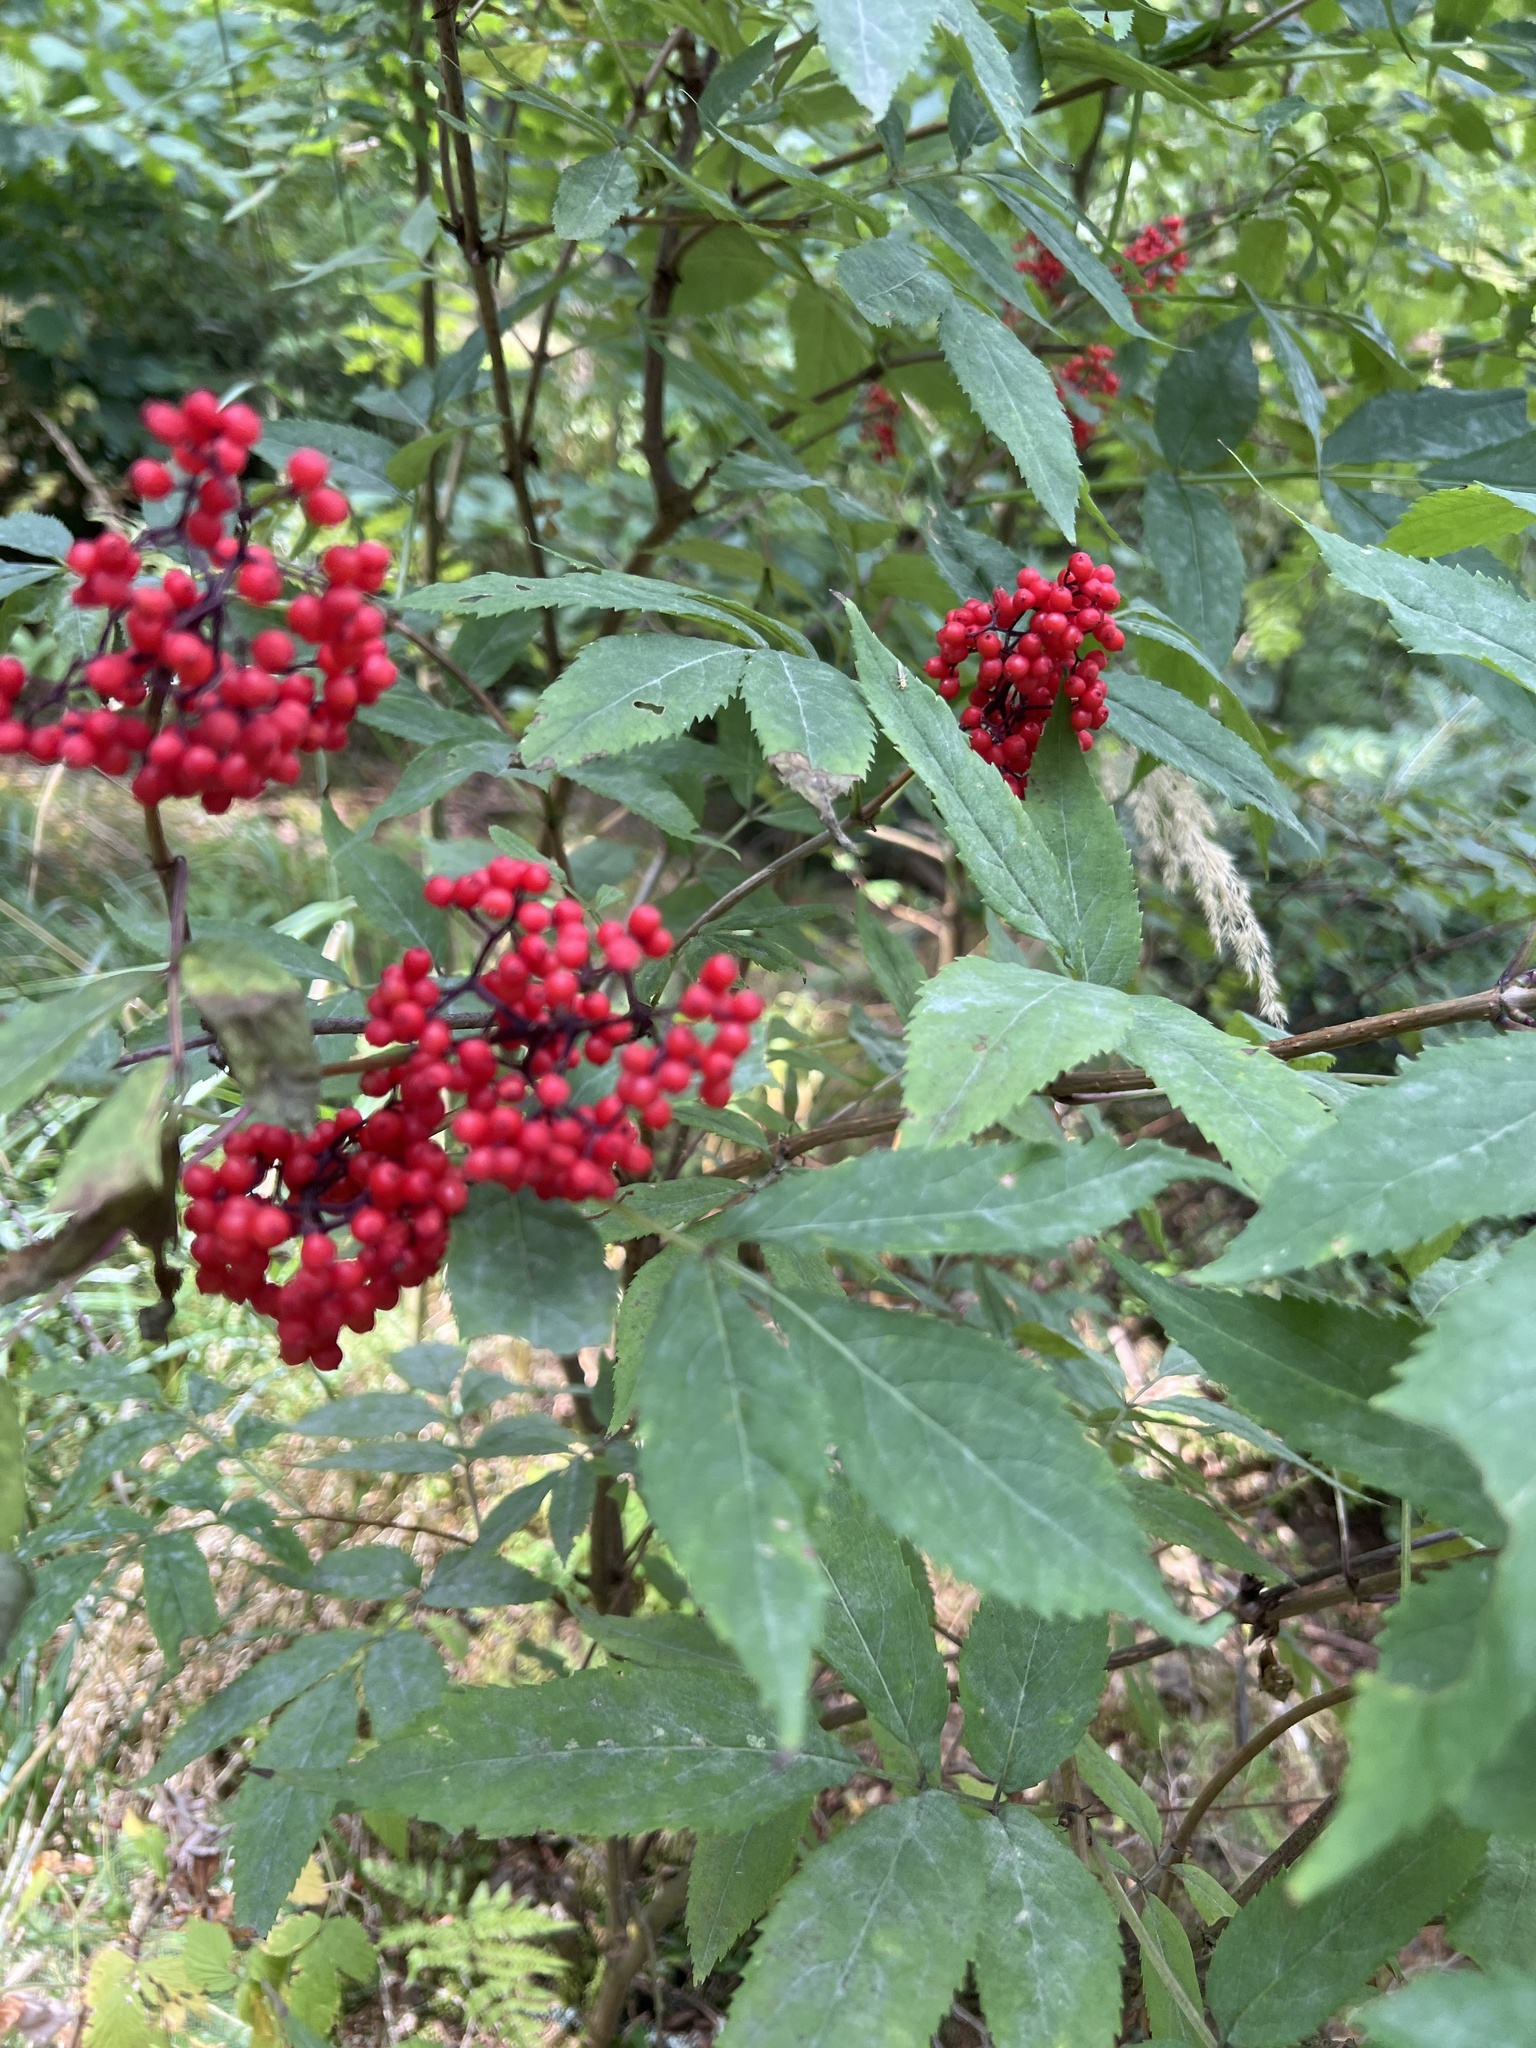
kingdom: Plantae
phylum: Tracheophyta
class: Magnoliopsida
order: Dipsacales
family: Viburnaceae
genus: Sambucus
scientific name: Sambucus racemosa
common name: Red-berried elder
